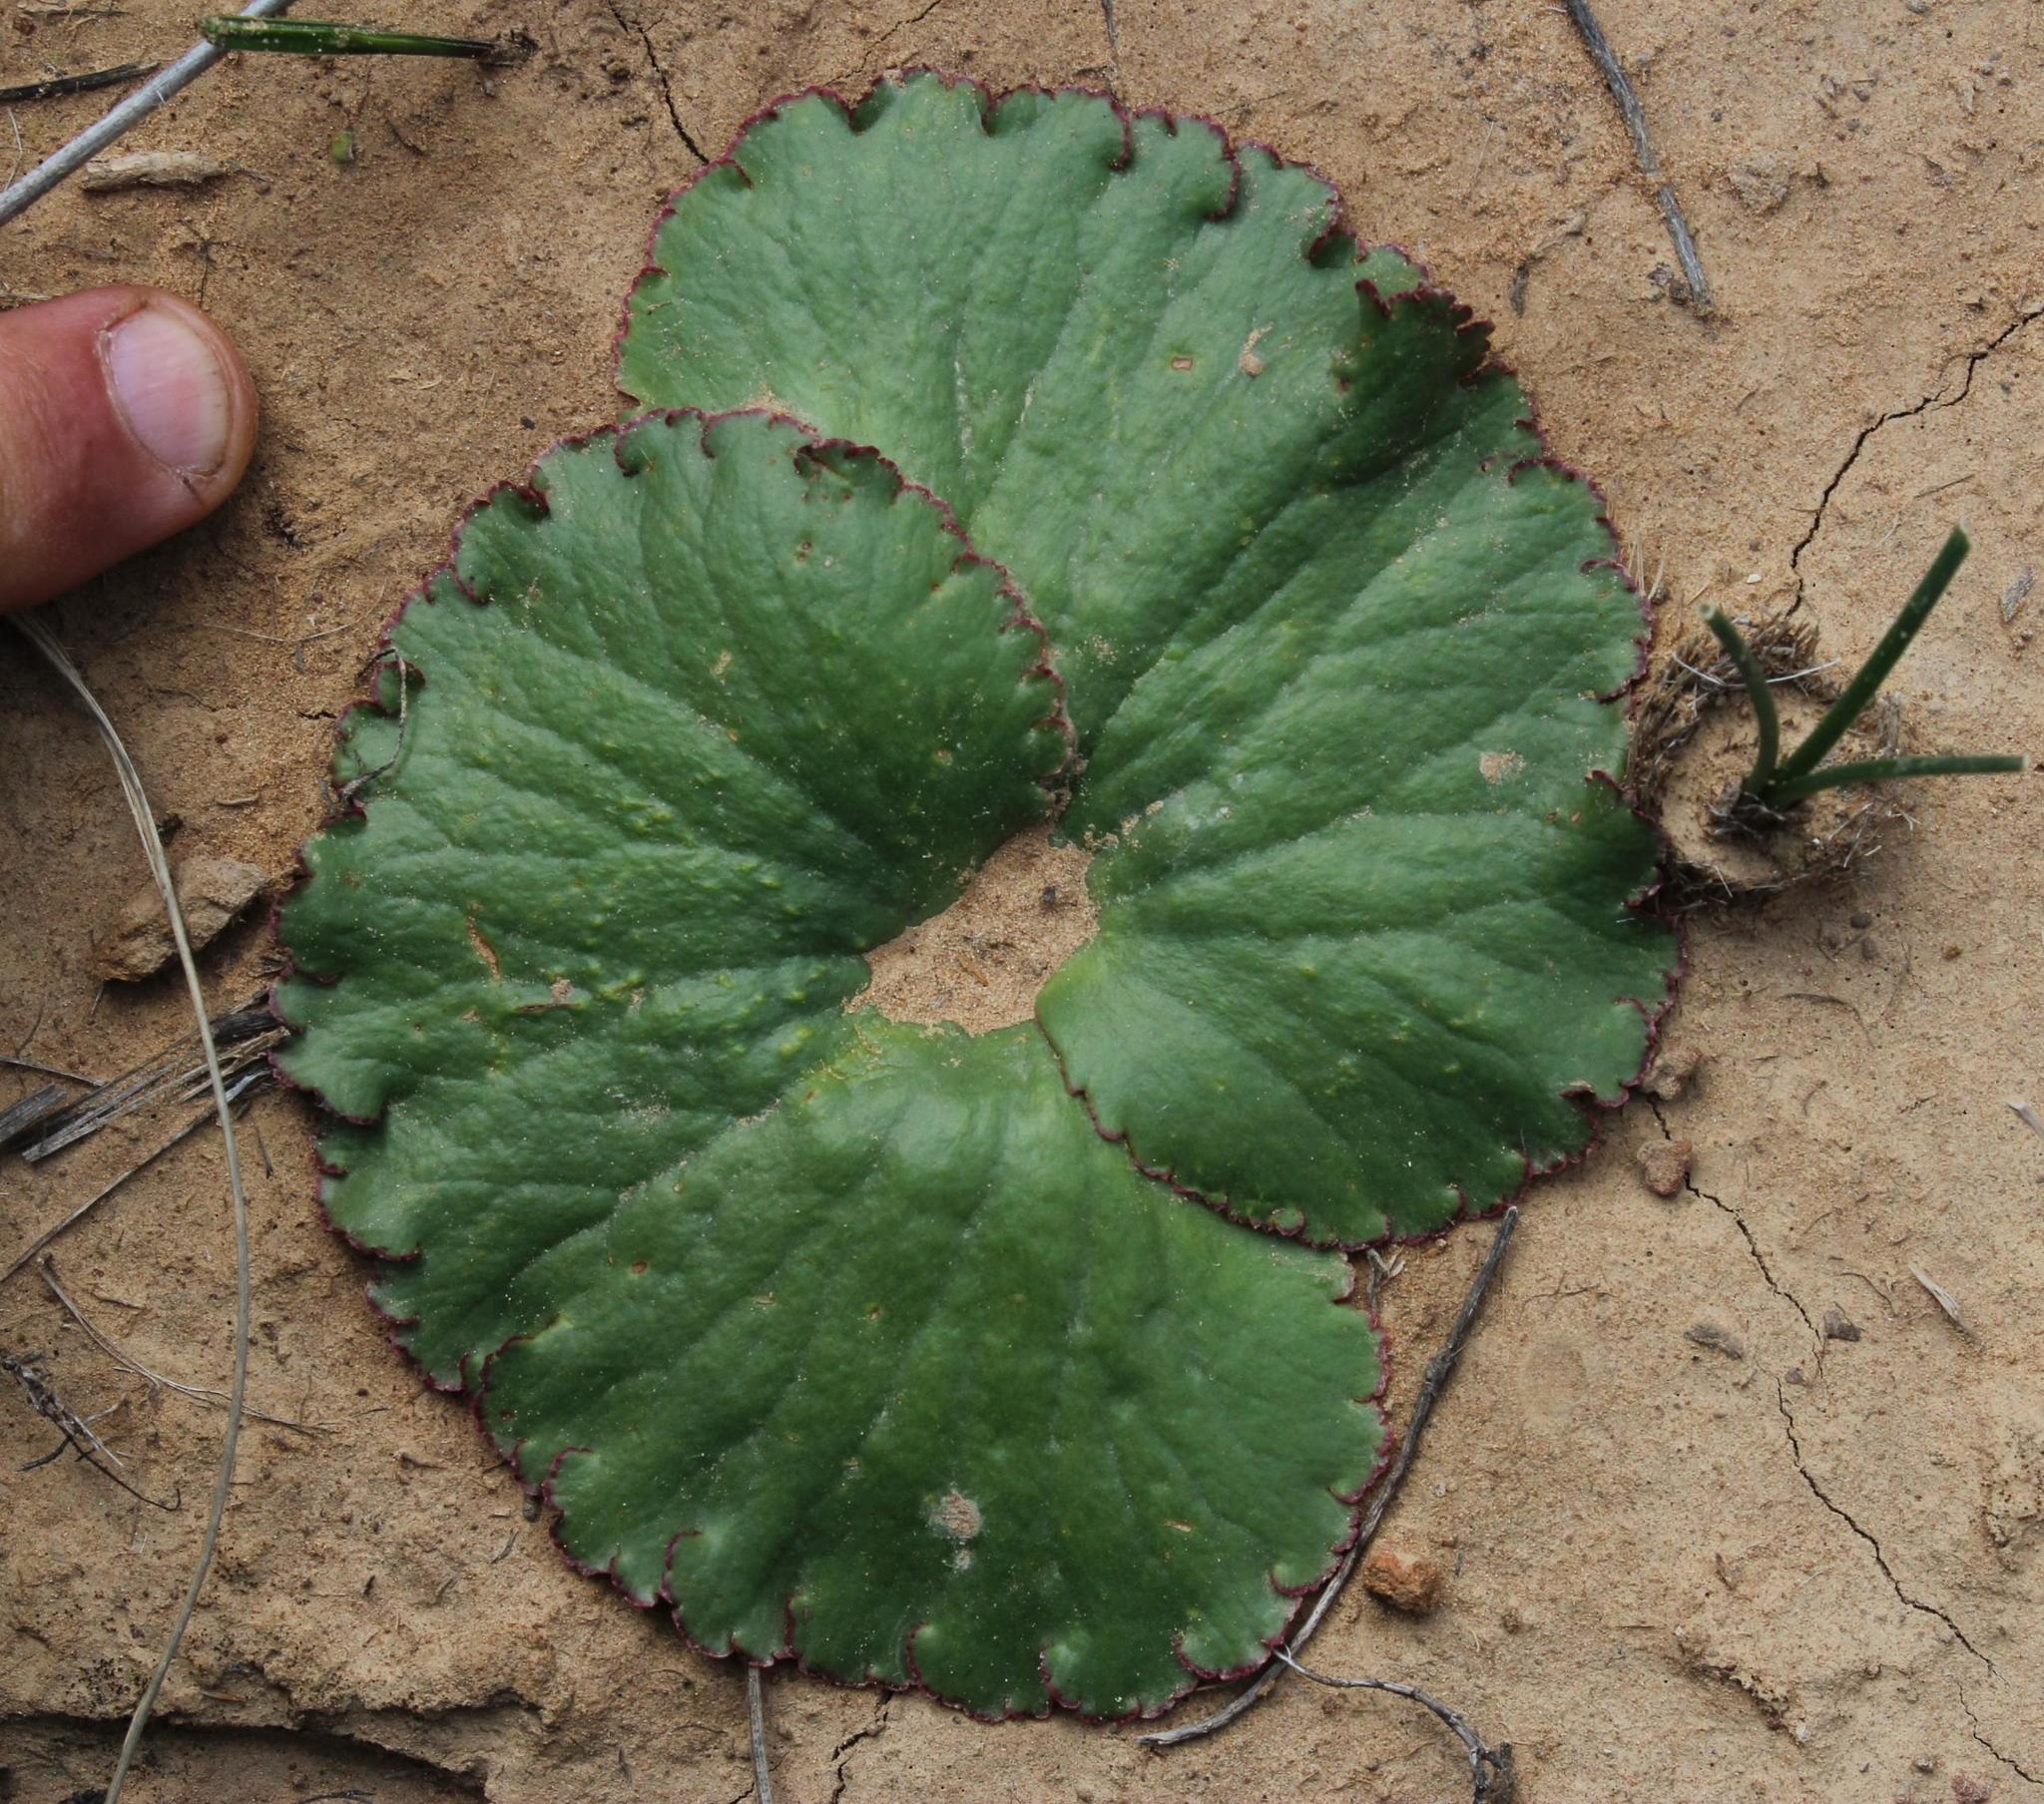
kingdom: Plantae
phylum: Tracheophyta
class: Magnoliopsida
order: Saxifragales
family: Crassulaceae
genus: Crassula
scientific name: Crassula umbella
